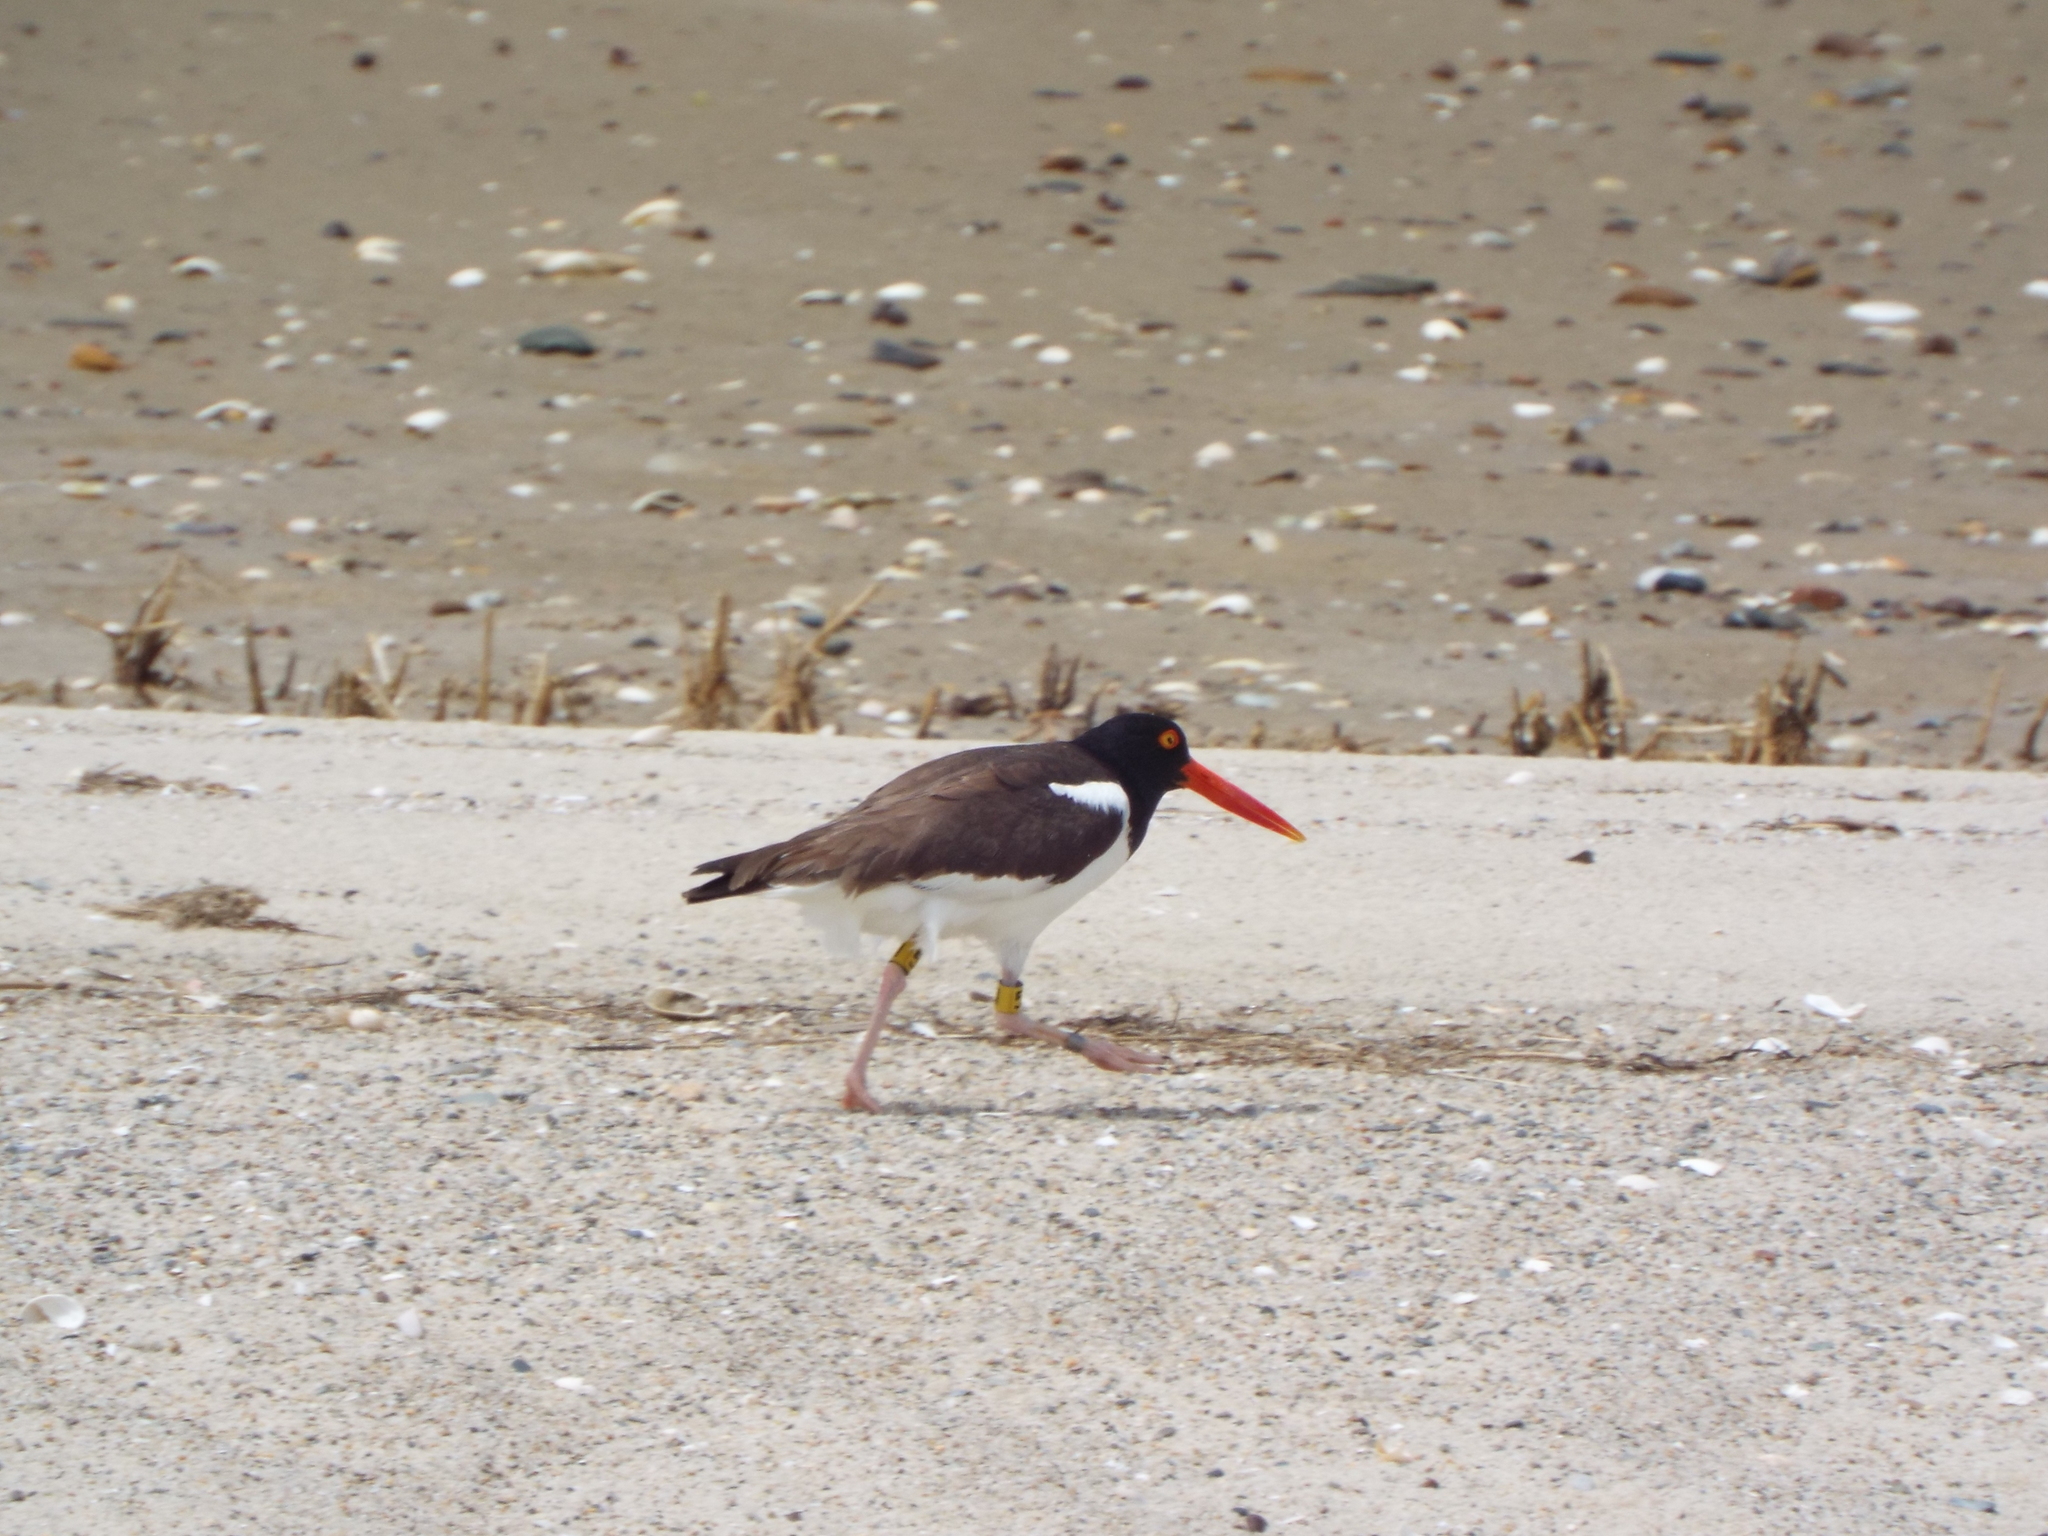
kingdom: Animalia
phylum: Chordata
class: Aves
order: Charadriiformes
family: Haematopodidae
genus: Haematopus
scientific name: Haematopus palliatus
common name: American oystercatcher
